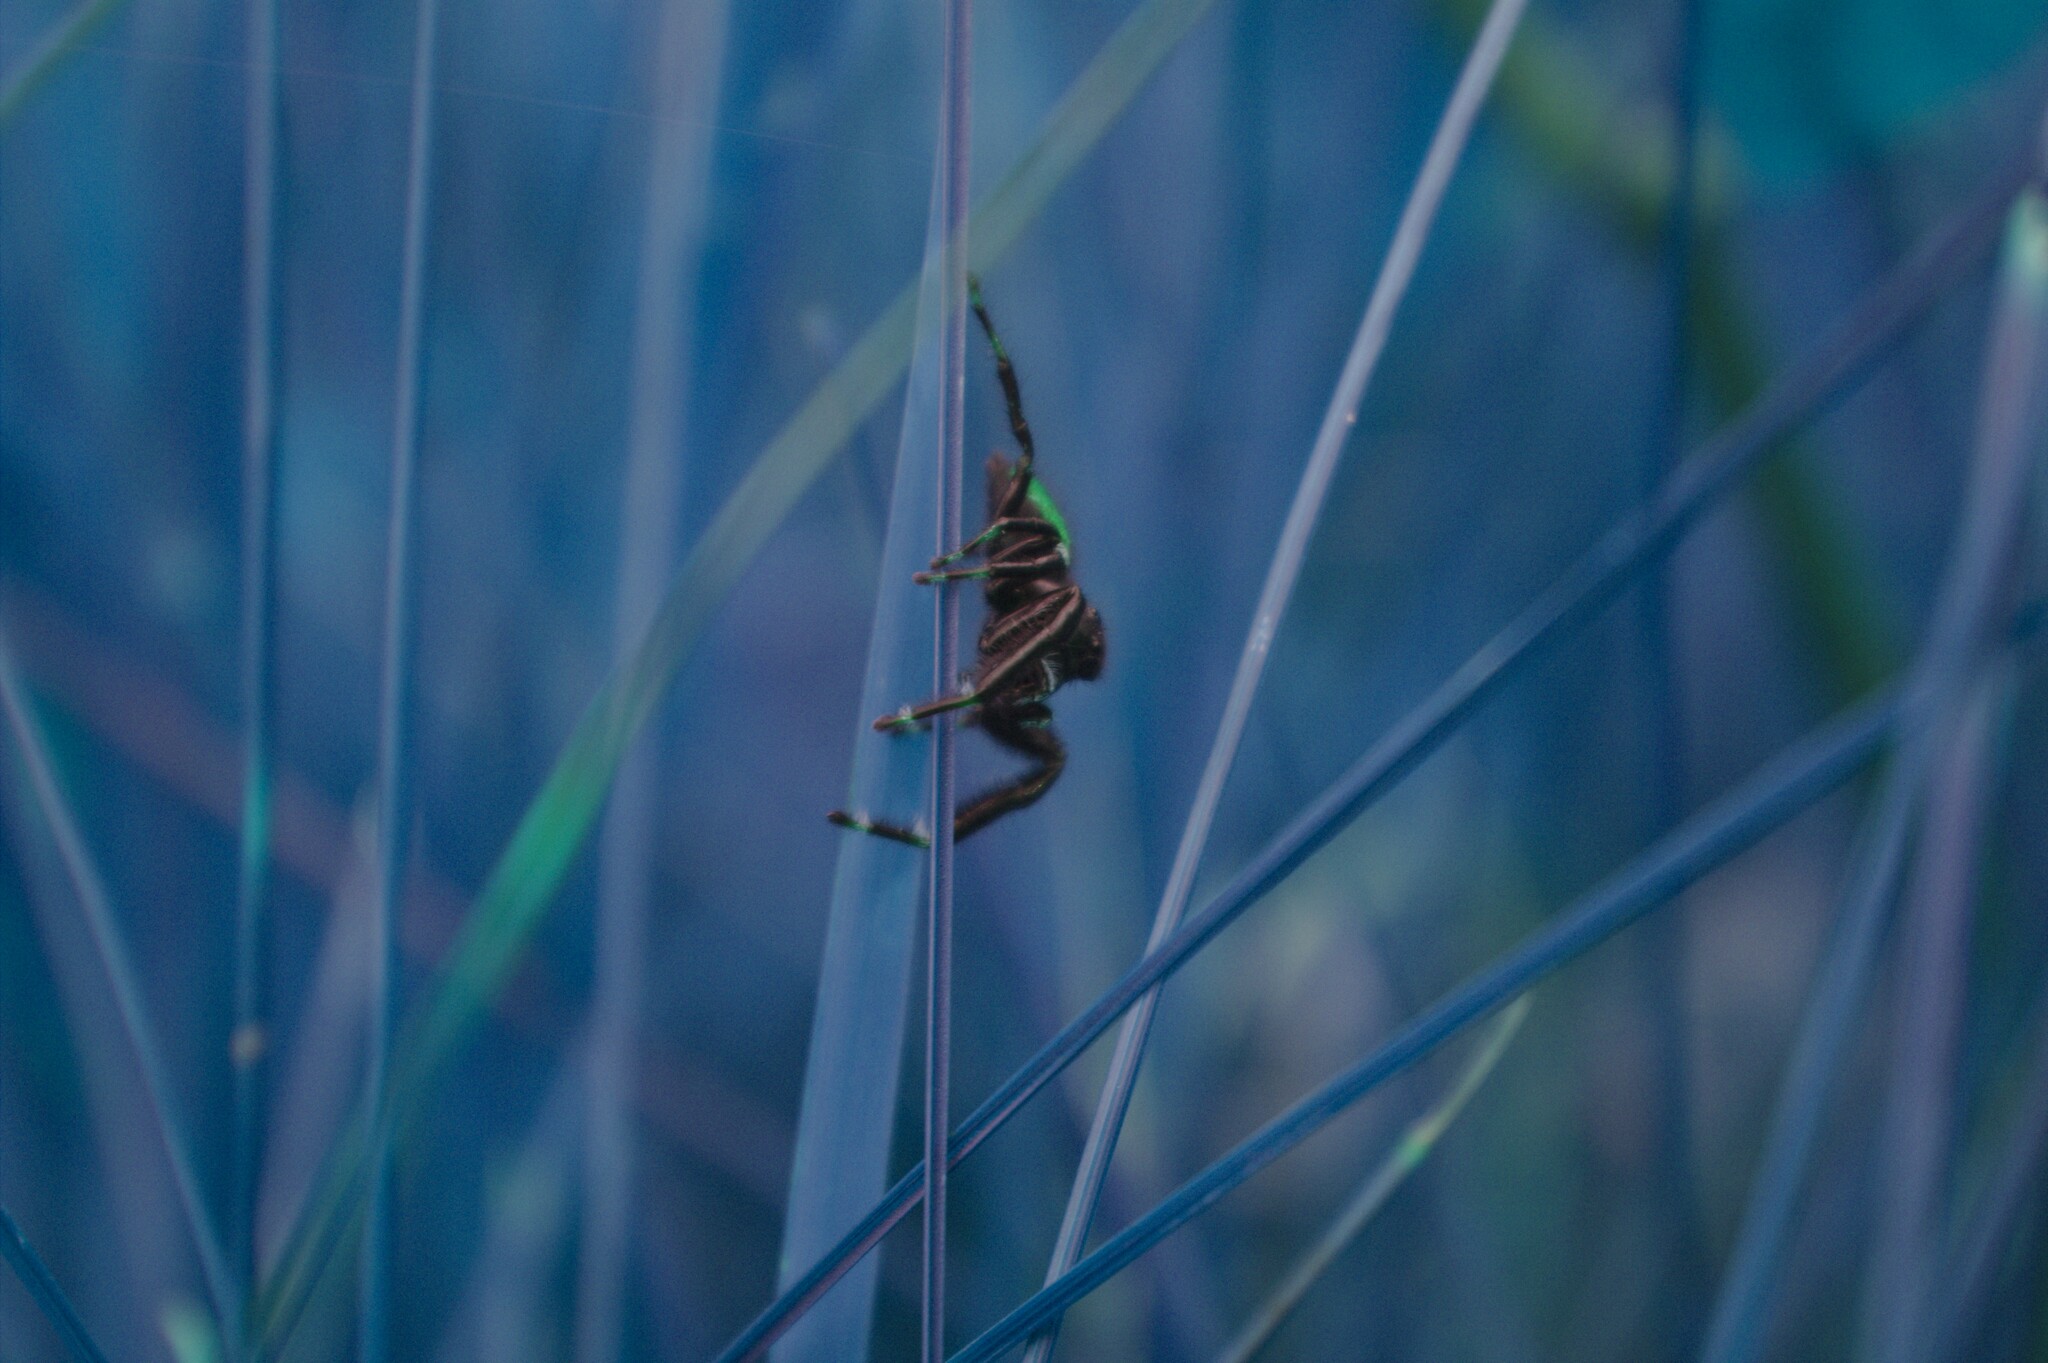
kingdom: Animalia
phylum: Arthropoda
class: Arachnida
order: Araneae
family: Salticidae
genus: Phidippus
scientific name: Phidippus clarus
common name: Brilliant jumping spider
